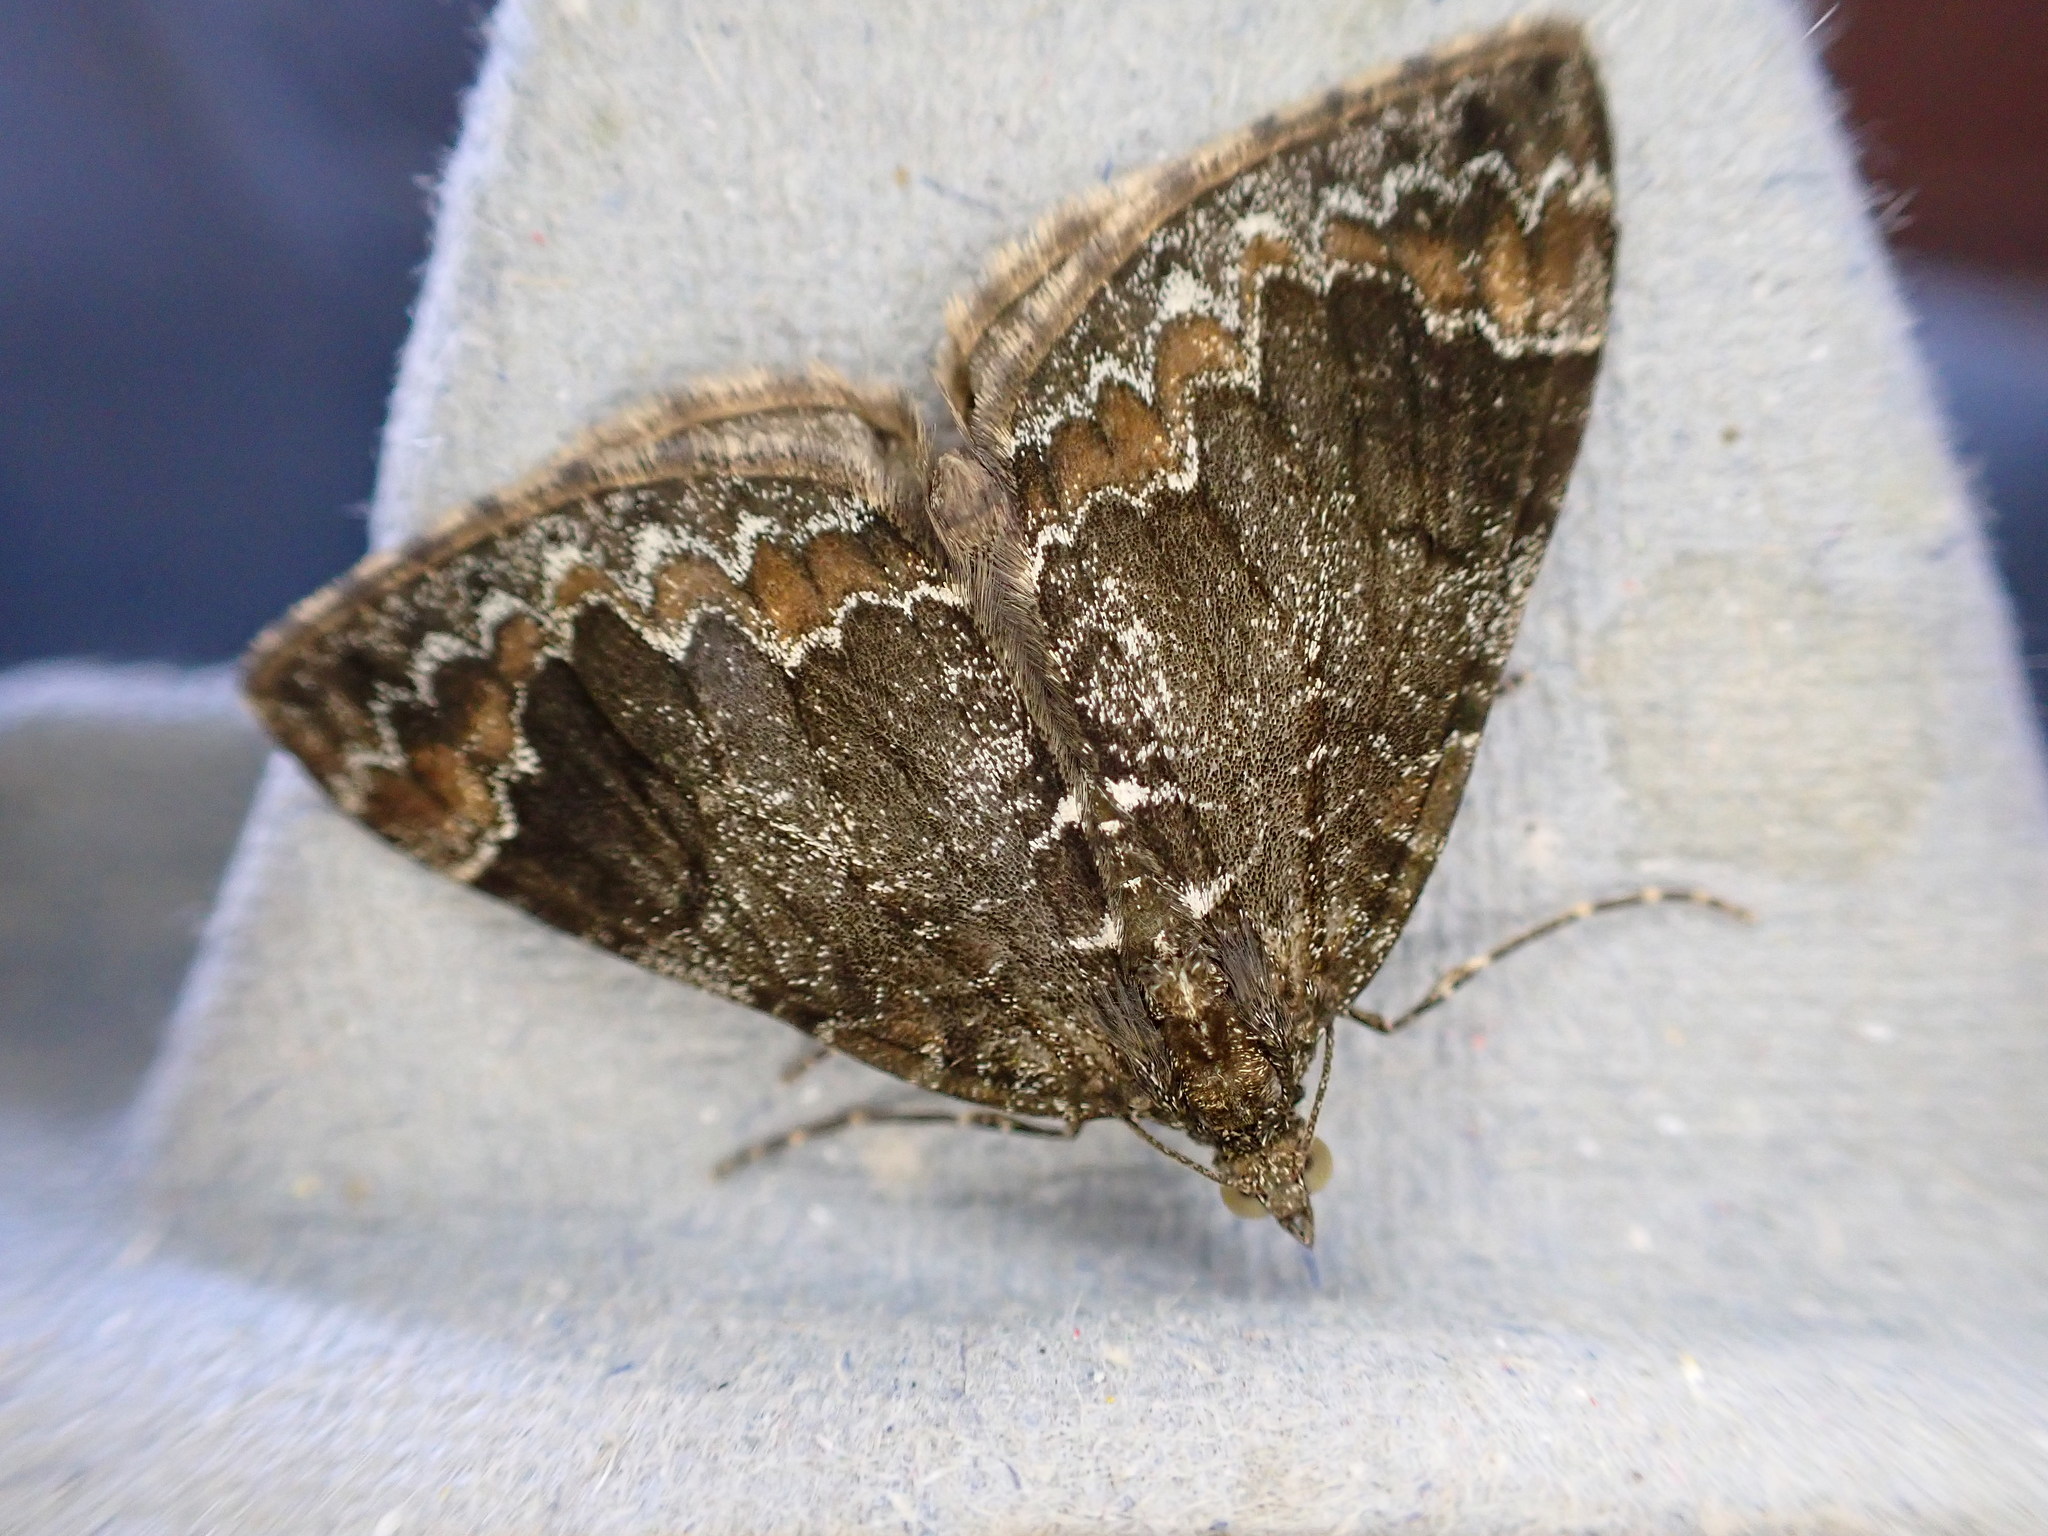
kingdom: Animalia
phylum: Arthropoda
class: Insecta
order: Lepidoptera
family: Geometridae
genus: Dysstroma
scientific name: Dysstroma truncata
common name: Common marbled carpet
